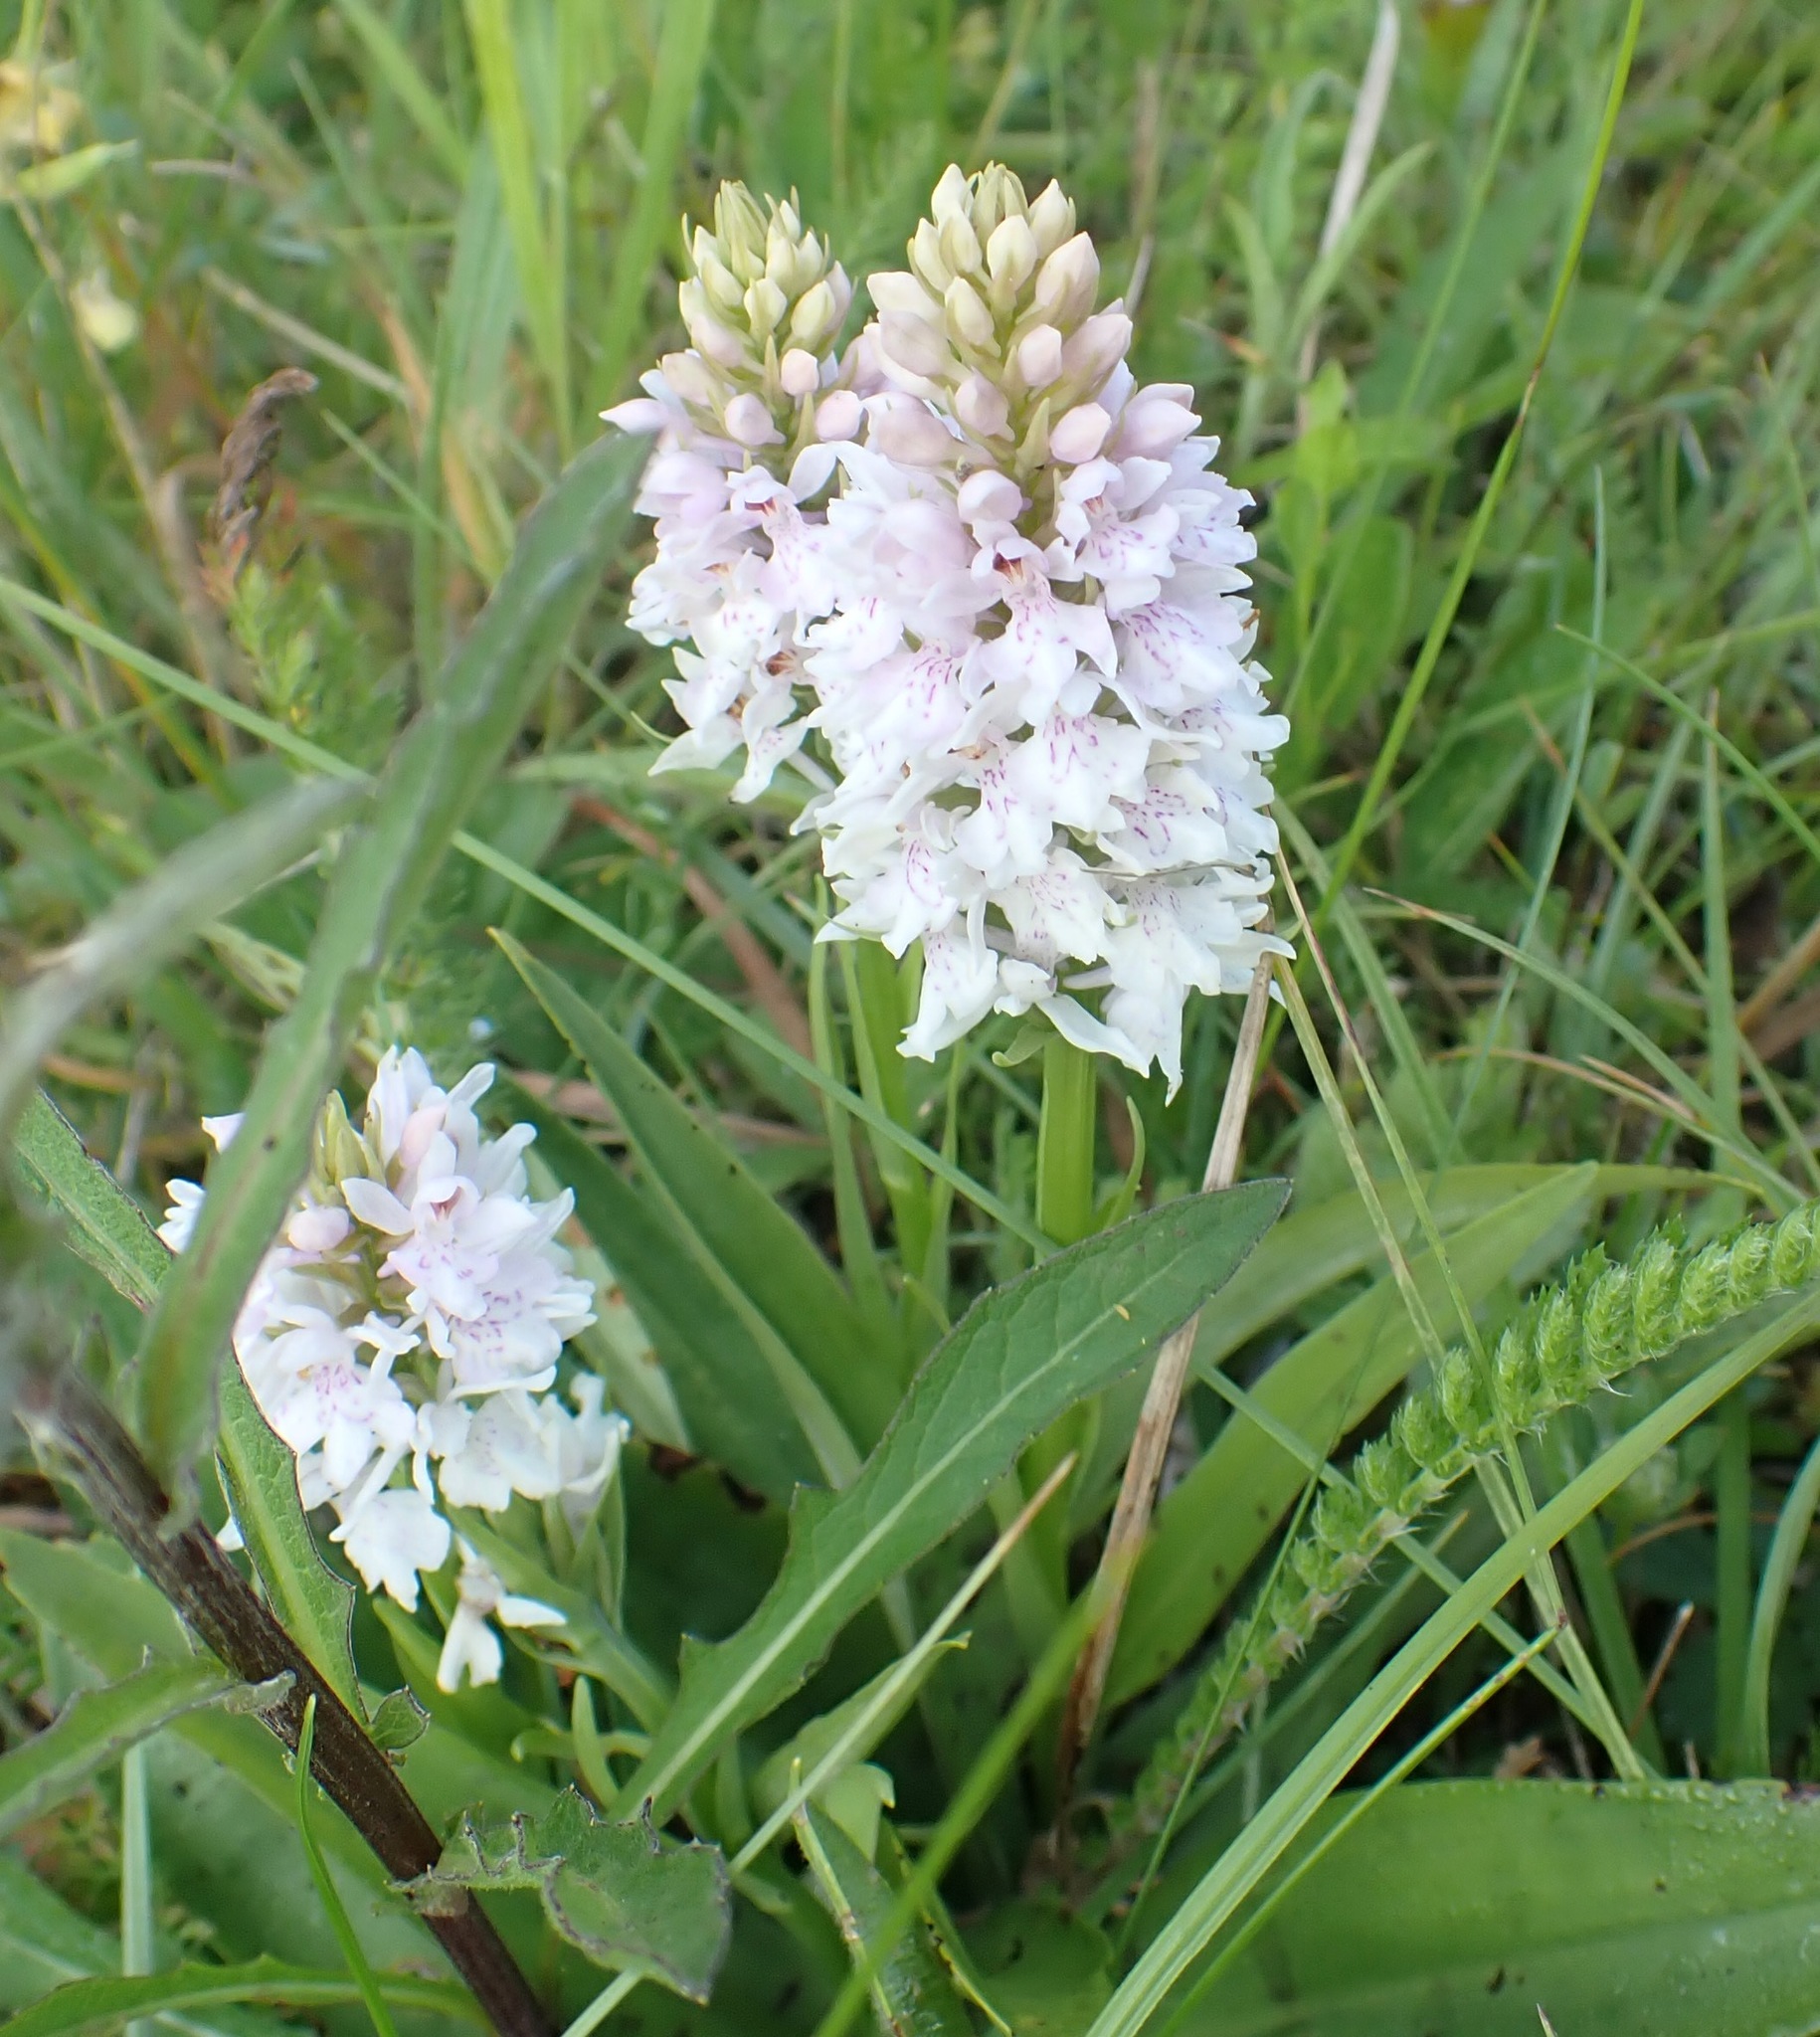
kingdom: Plantae
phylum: Tracheophyta
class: Liliopsida
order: Asparagales
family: Orchidaceae
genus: Dactylorhiza
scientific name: Dactylorhiza maculata
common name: Heath spotted-orchid
